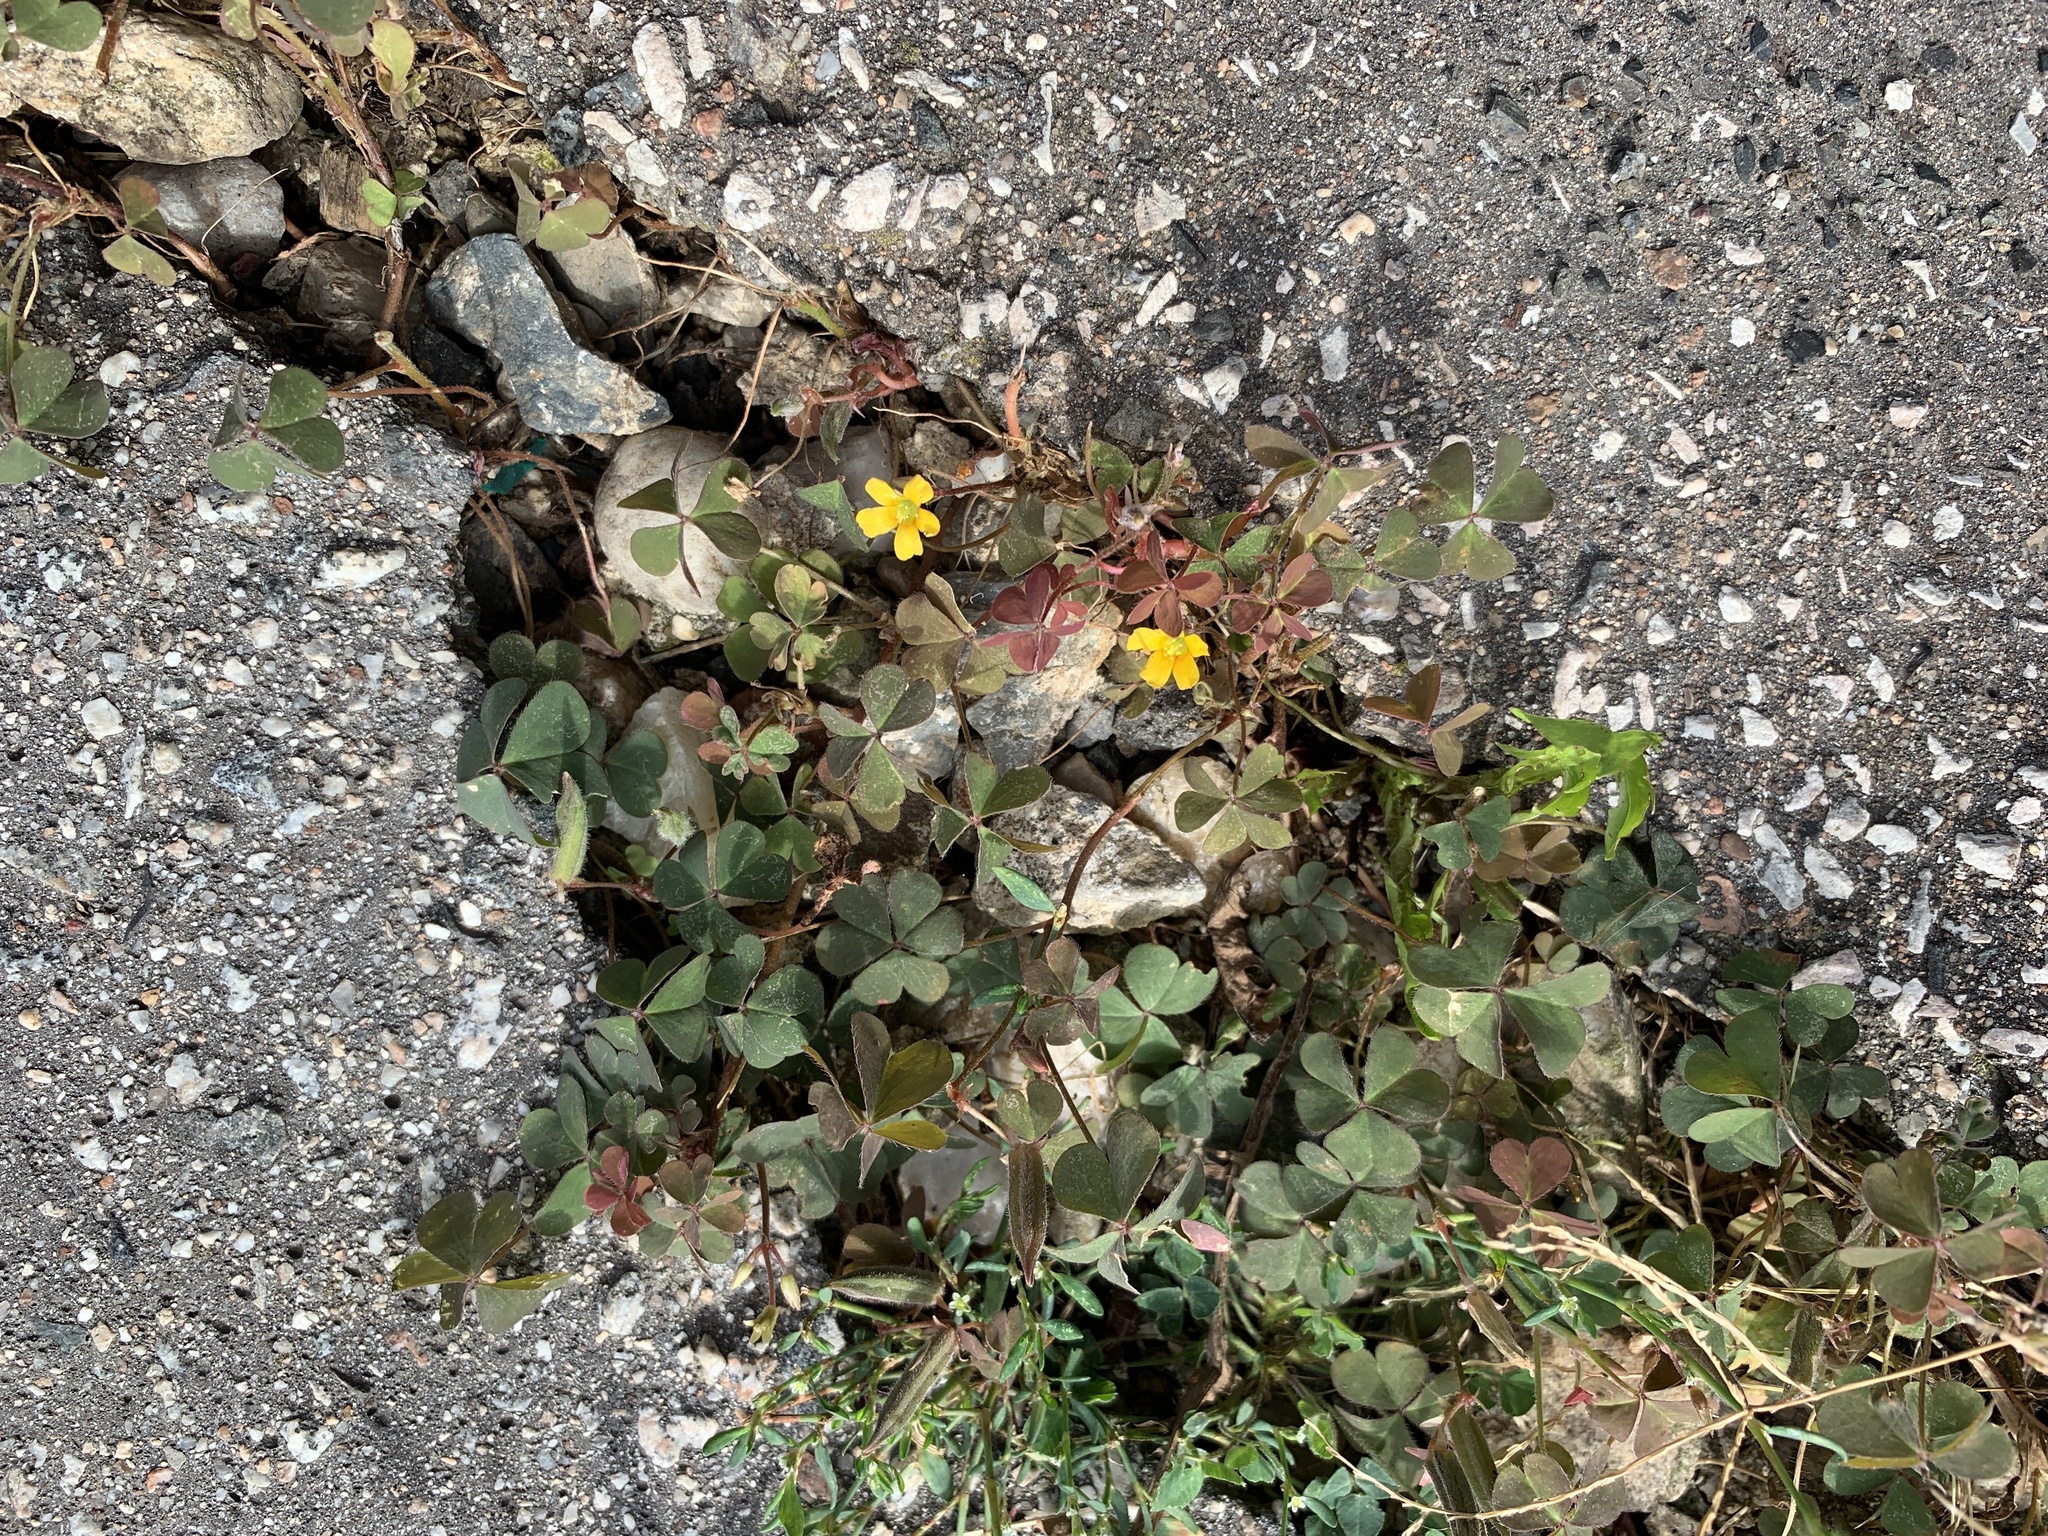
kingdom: Plantae
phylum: Tracheophyta
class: Magnoliopsida
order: Oxalidales
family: Oxalidaceae
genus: Oxalis
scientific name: Oxalis corniculata
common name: Procumbent yellow-sorrel
